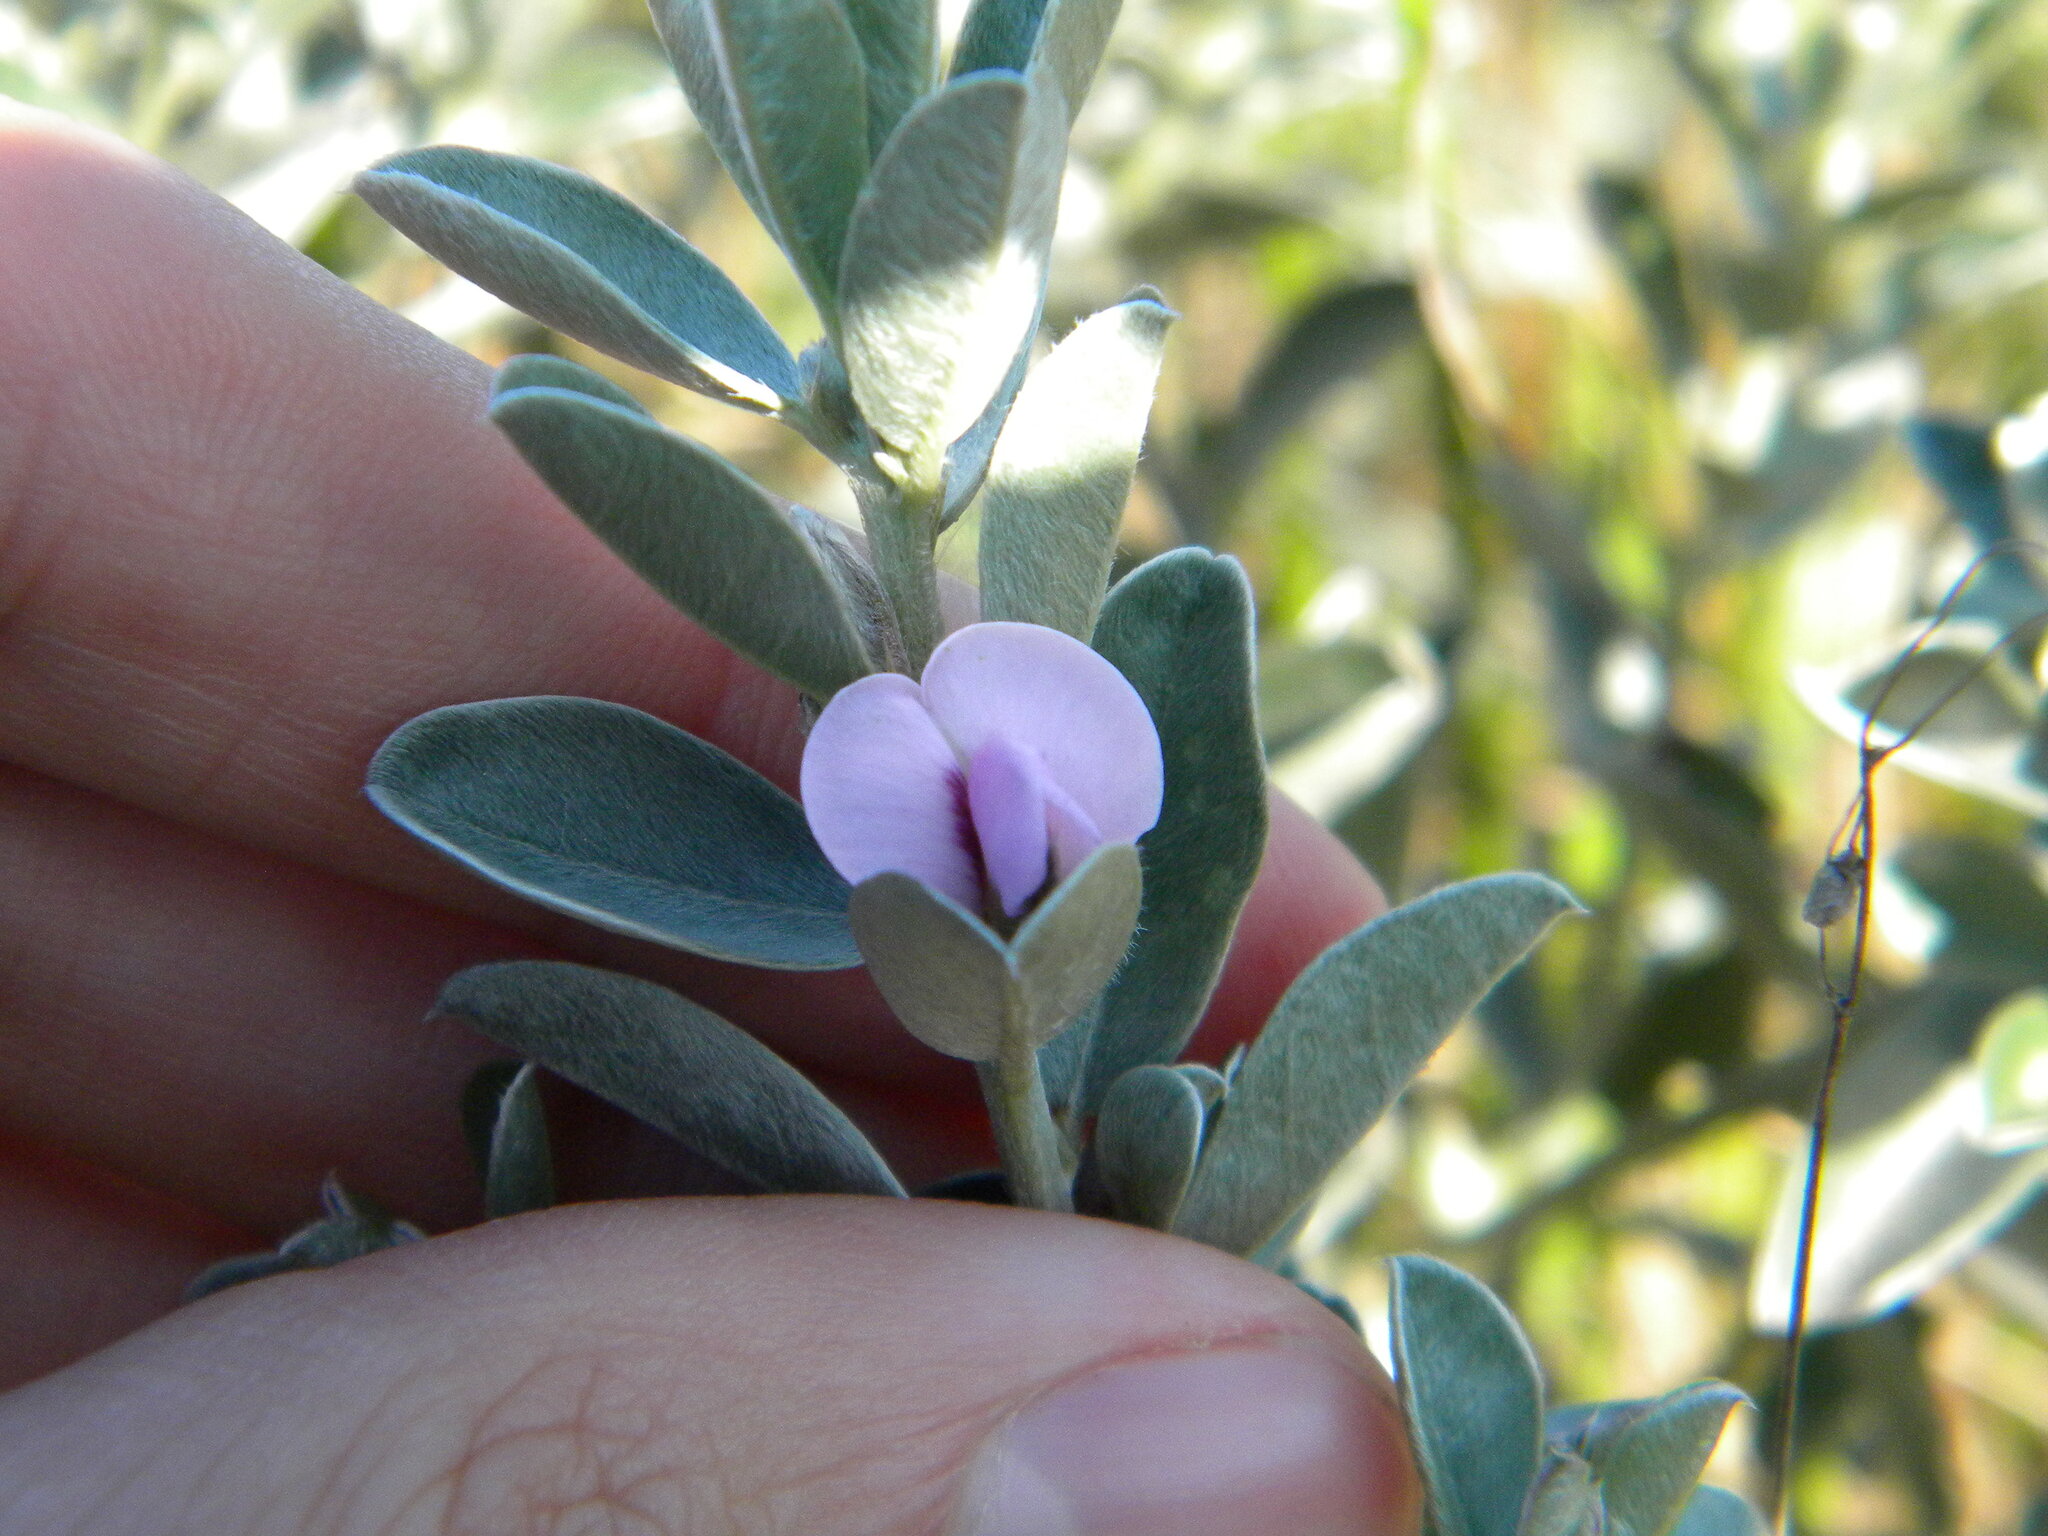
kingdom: Plantae
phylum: Tracheophyta
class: Magnoliopsida
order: Fabales
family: Fabaceae
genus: Podalyria
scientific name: Podalyria sericea
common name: Silver podalyria
